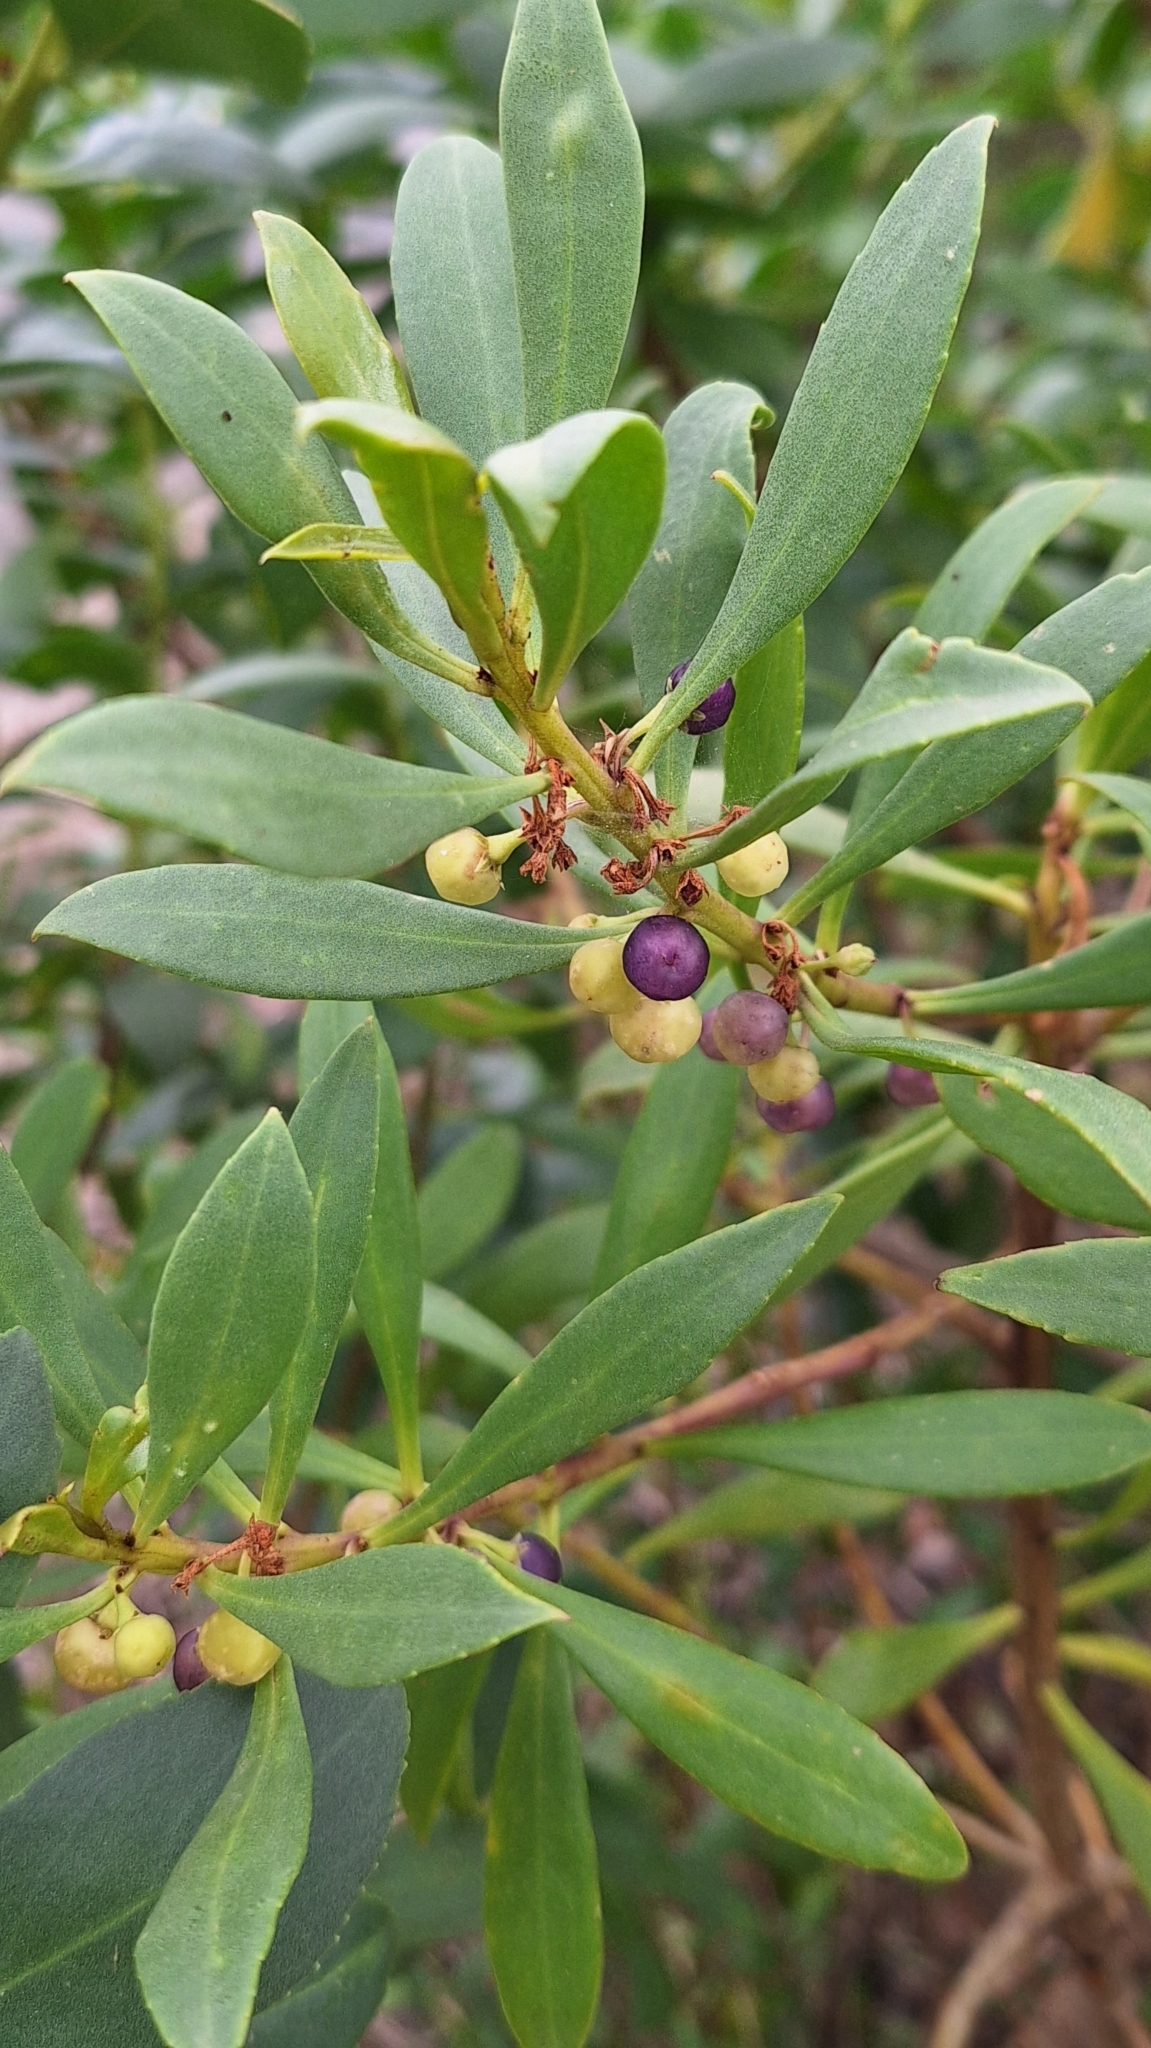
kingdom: Plantae
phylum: Tracheophyta
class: Magnoliopsida
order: Lamiales
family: Scrophulariaceae
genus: Myoporum
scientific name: Myoporum insulare
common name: Common boobialla
